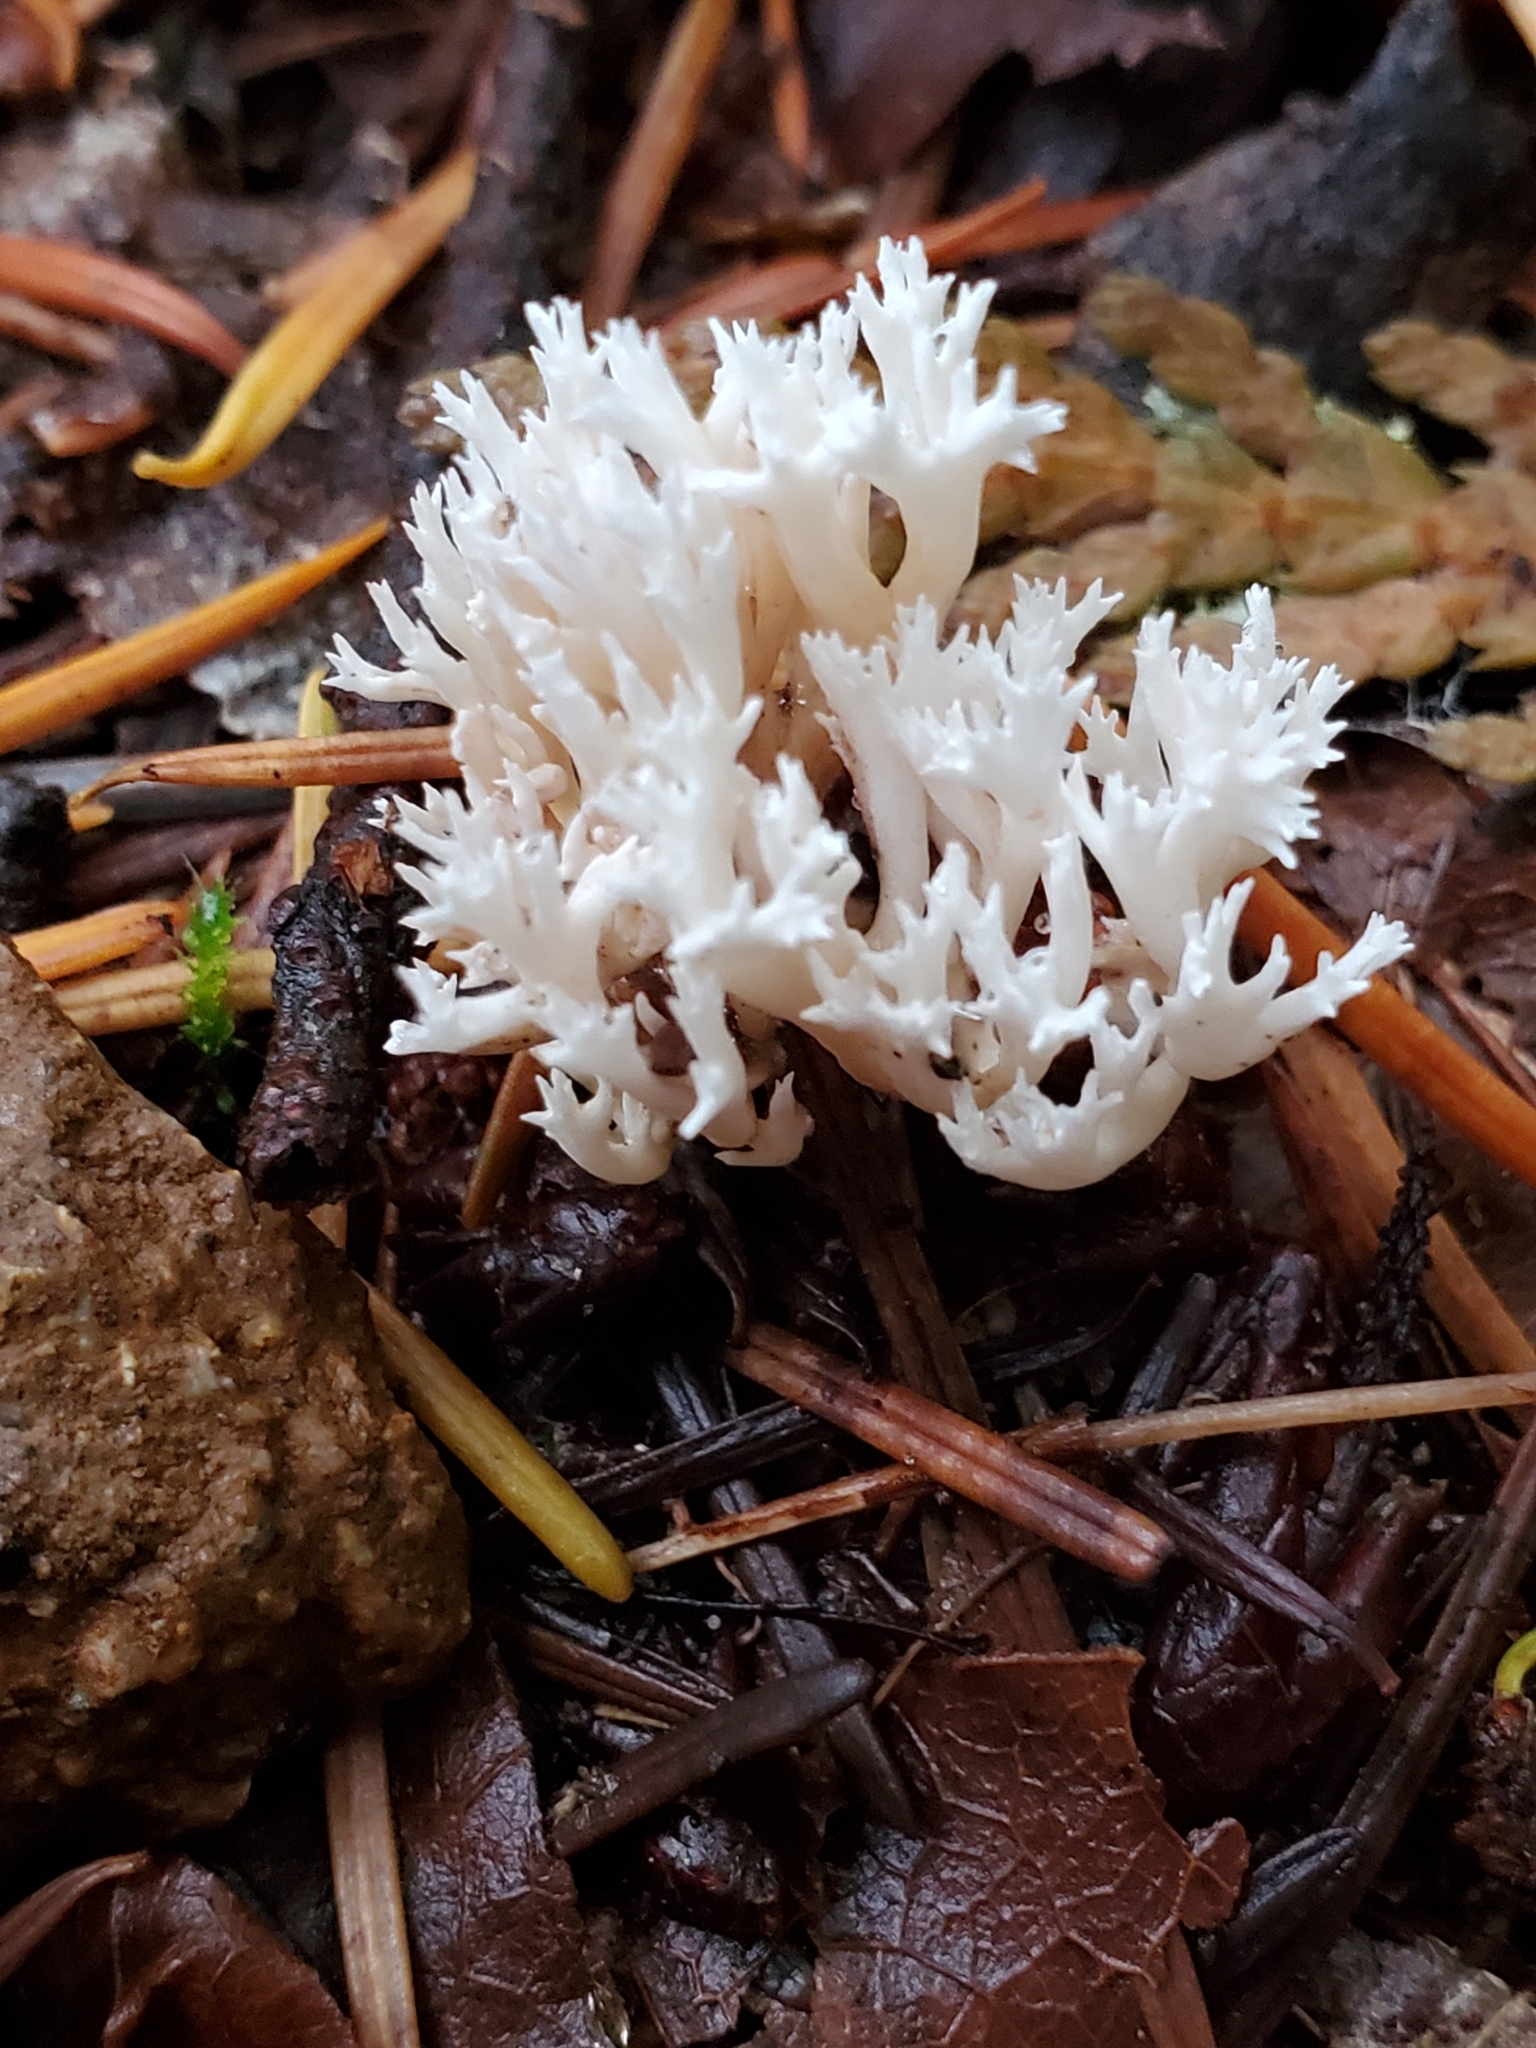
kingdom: Fungi
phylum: Basidiomycota
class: Agaricomycetes
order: Cantharellales
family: Hydnaceae
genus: Clavulina
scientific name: Clavulina coralloides
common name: Crested coral
